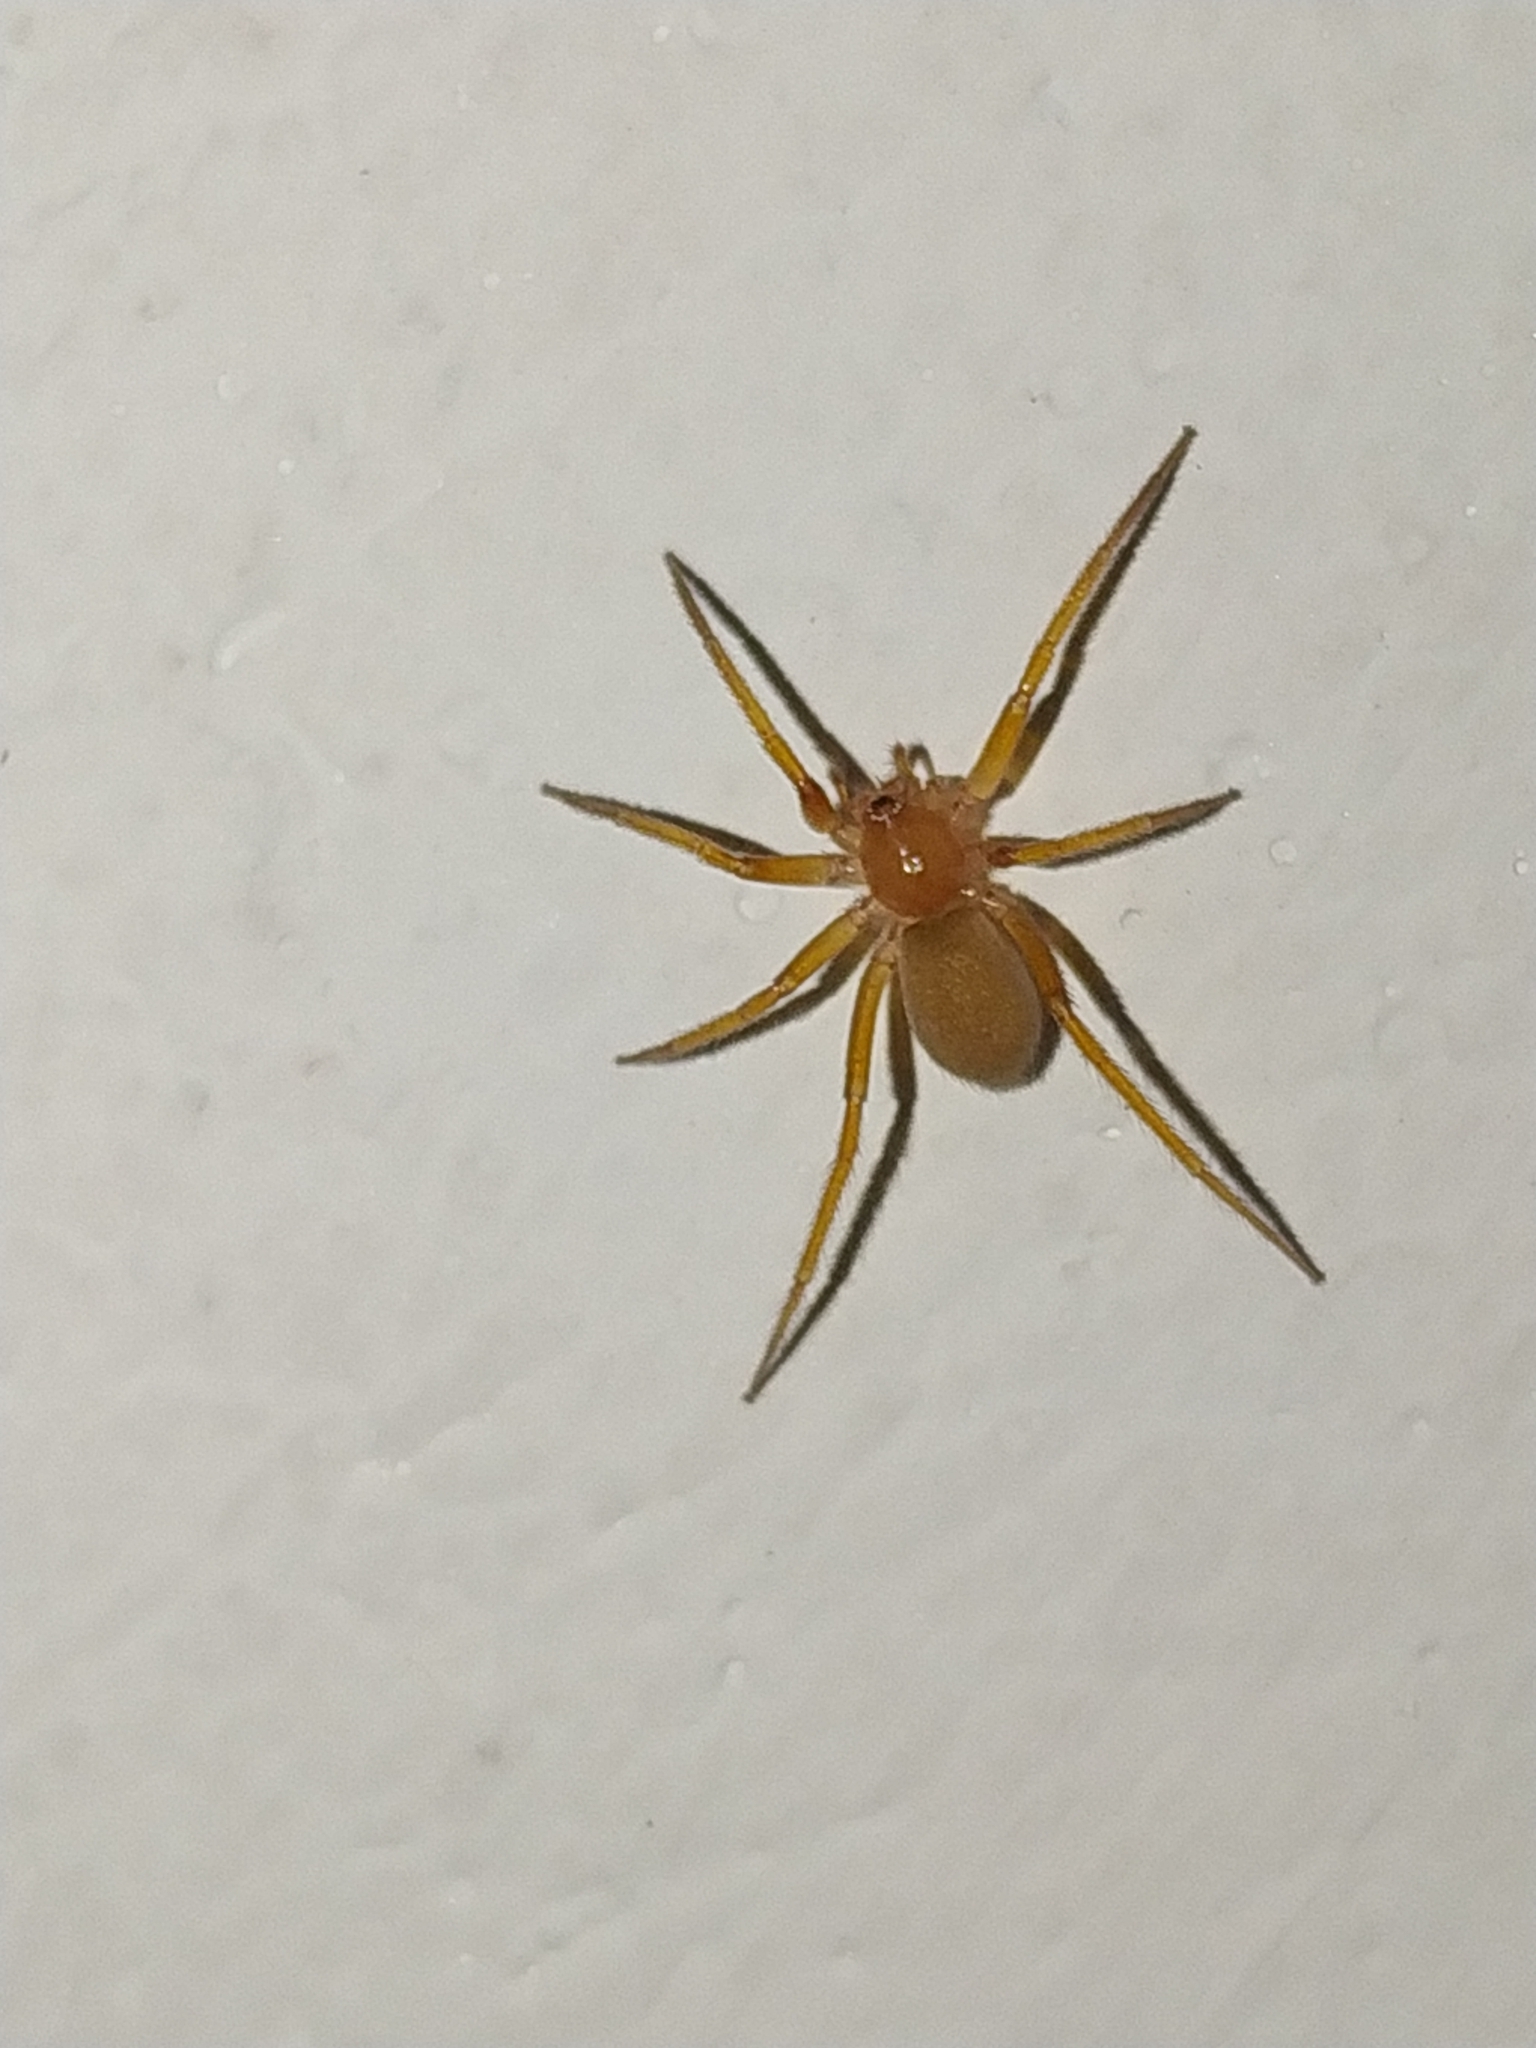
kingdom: Animalia
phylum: Arthropoda
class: Arachnida
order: Araneae
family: Prodidomidae
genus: Zimiris
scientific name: Zimiris doriae
